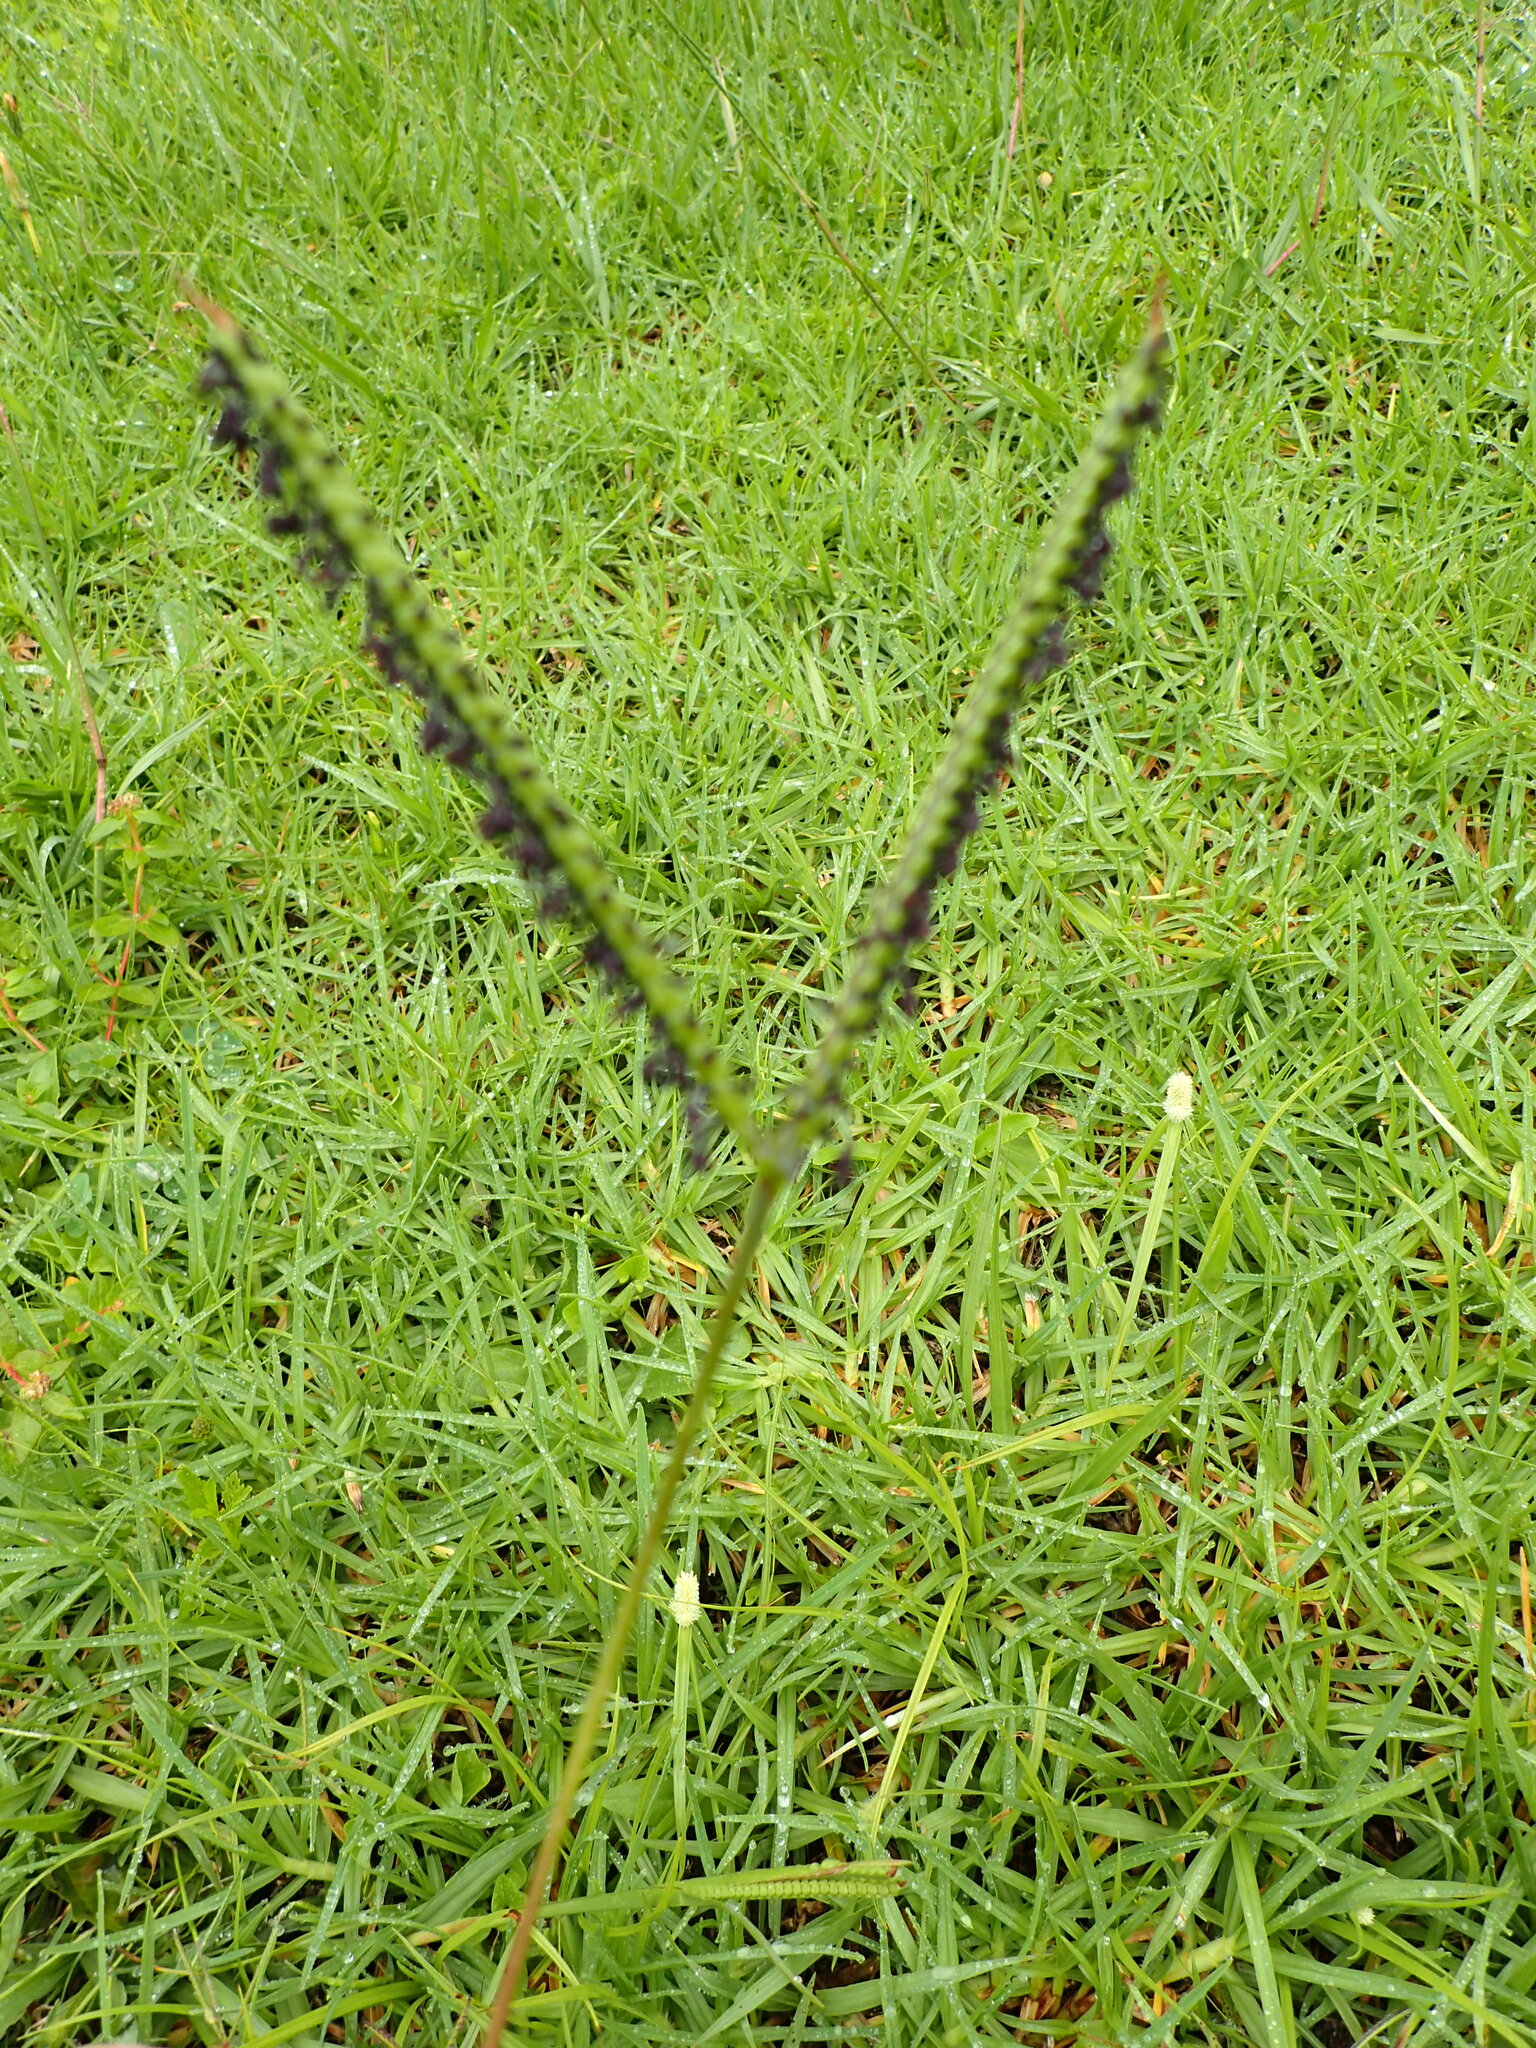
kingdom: Plantae
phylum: Tracheophyta
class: Liliopsida
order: Poales
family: Poaceae
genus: Paspalum
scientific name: Paspalum notatum
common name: Bahiagrass
